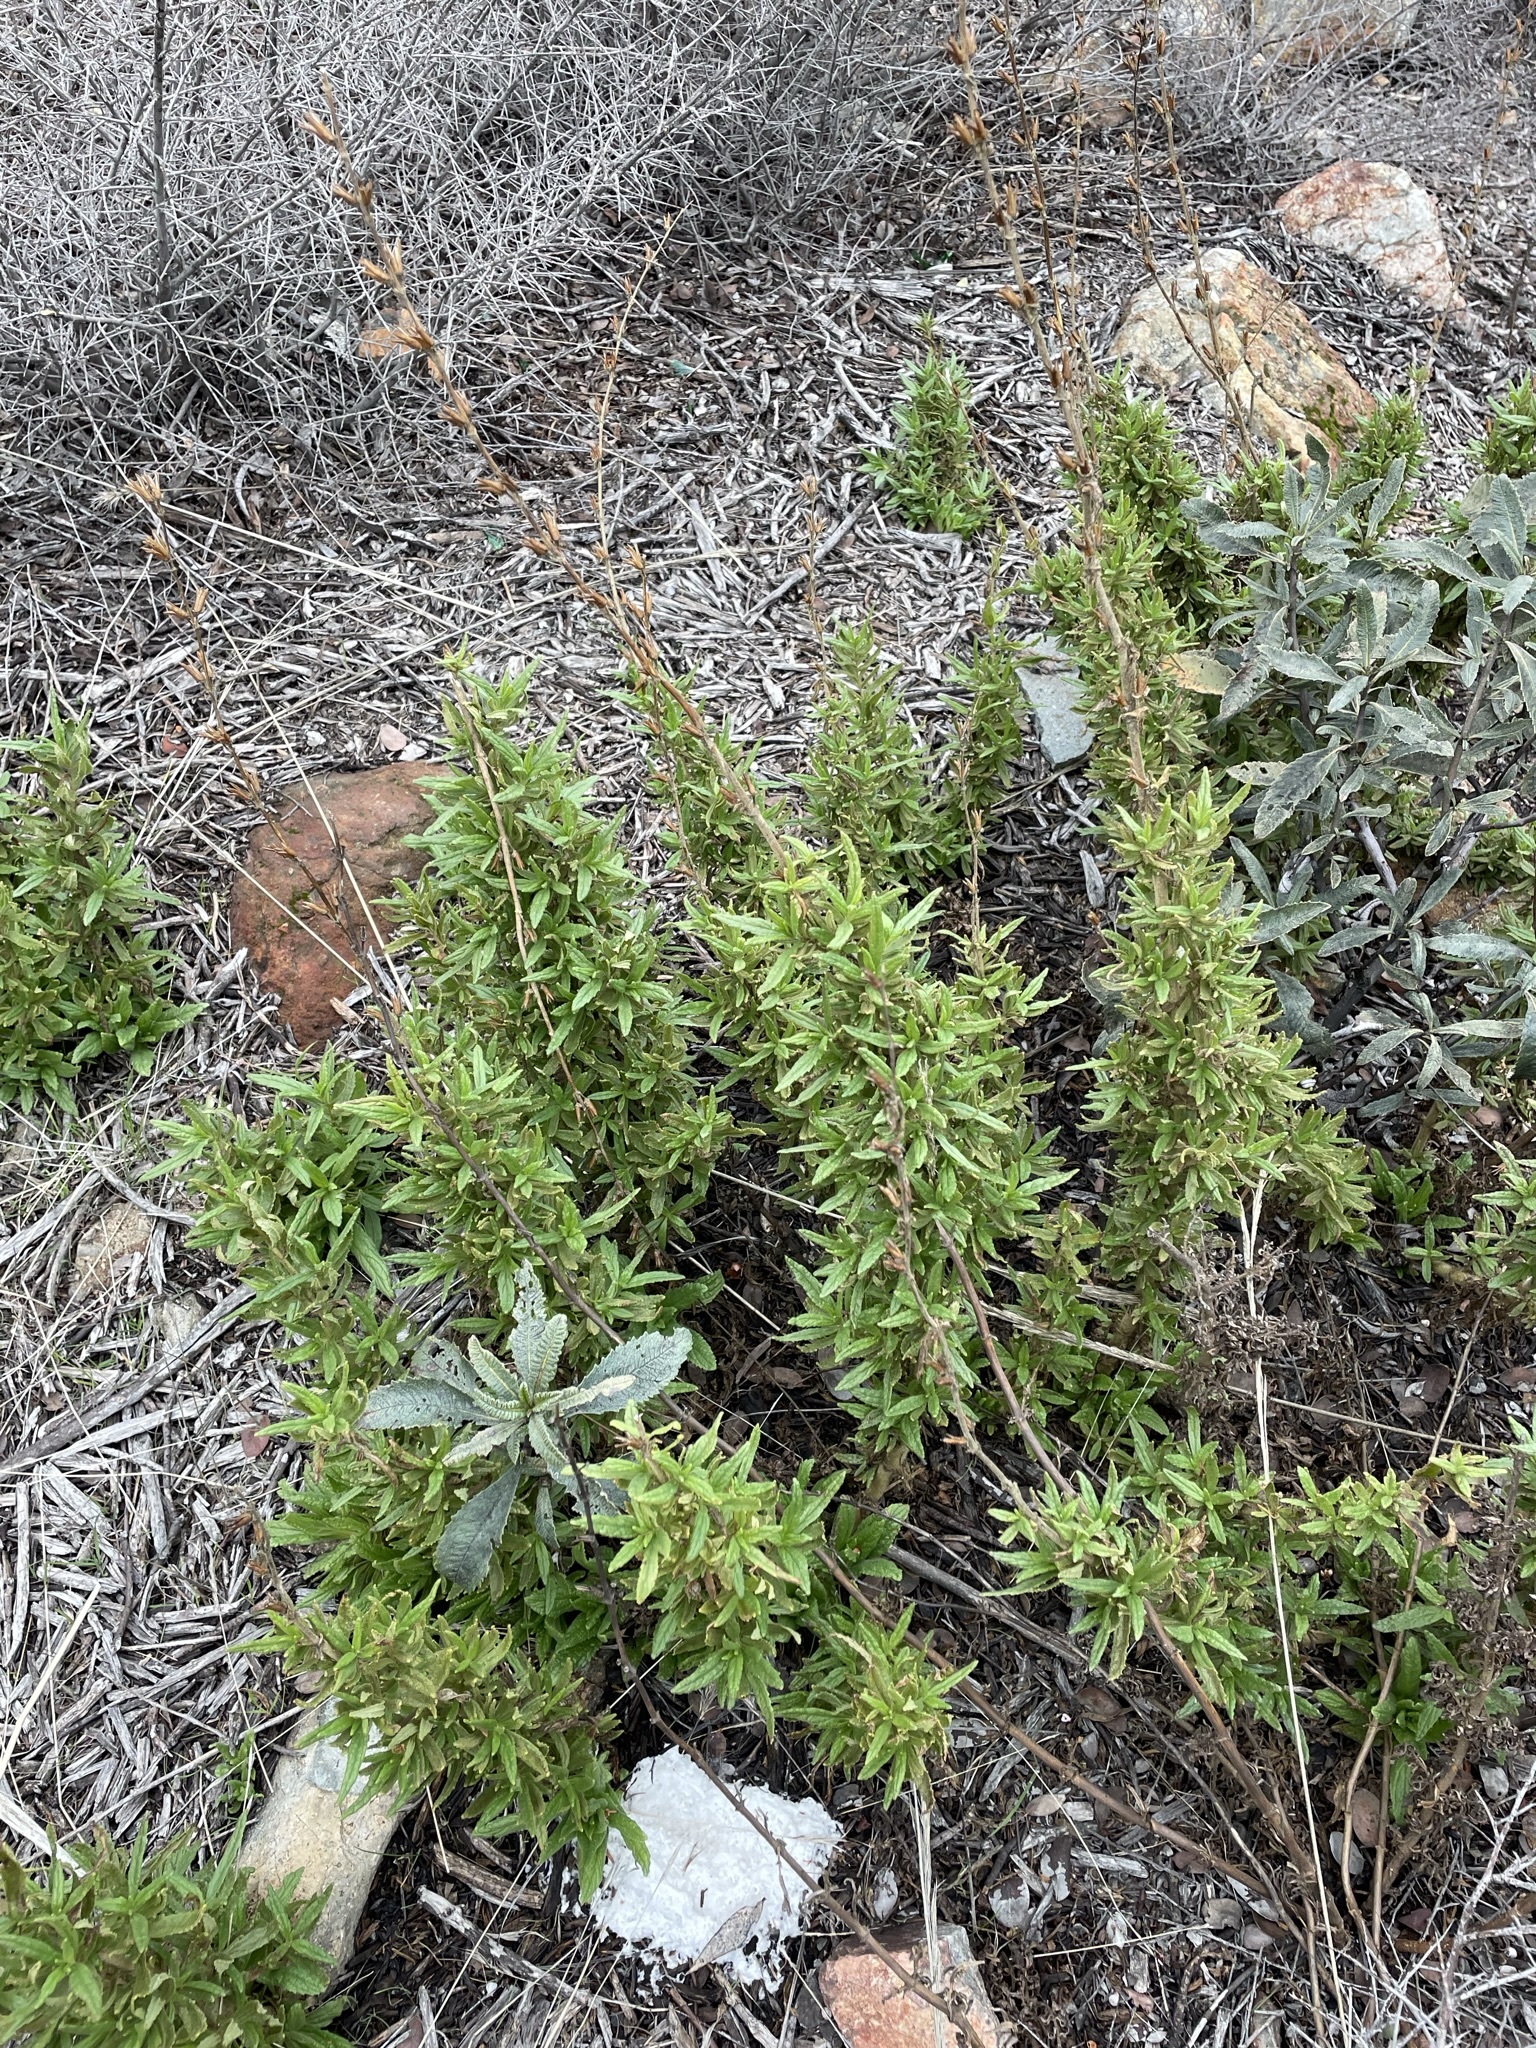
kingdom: Plantae
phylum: Tracheophyta
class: Magnoliopsida
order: Lamiales
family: Phrymaceae
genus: Diplacus
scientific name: Diplacus clevelandii
